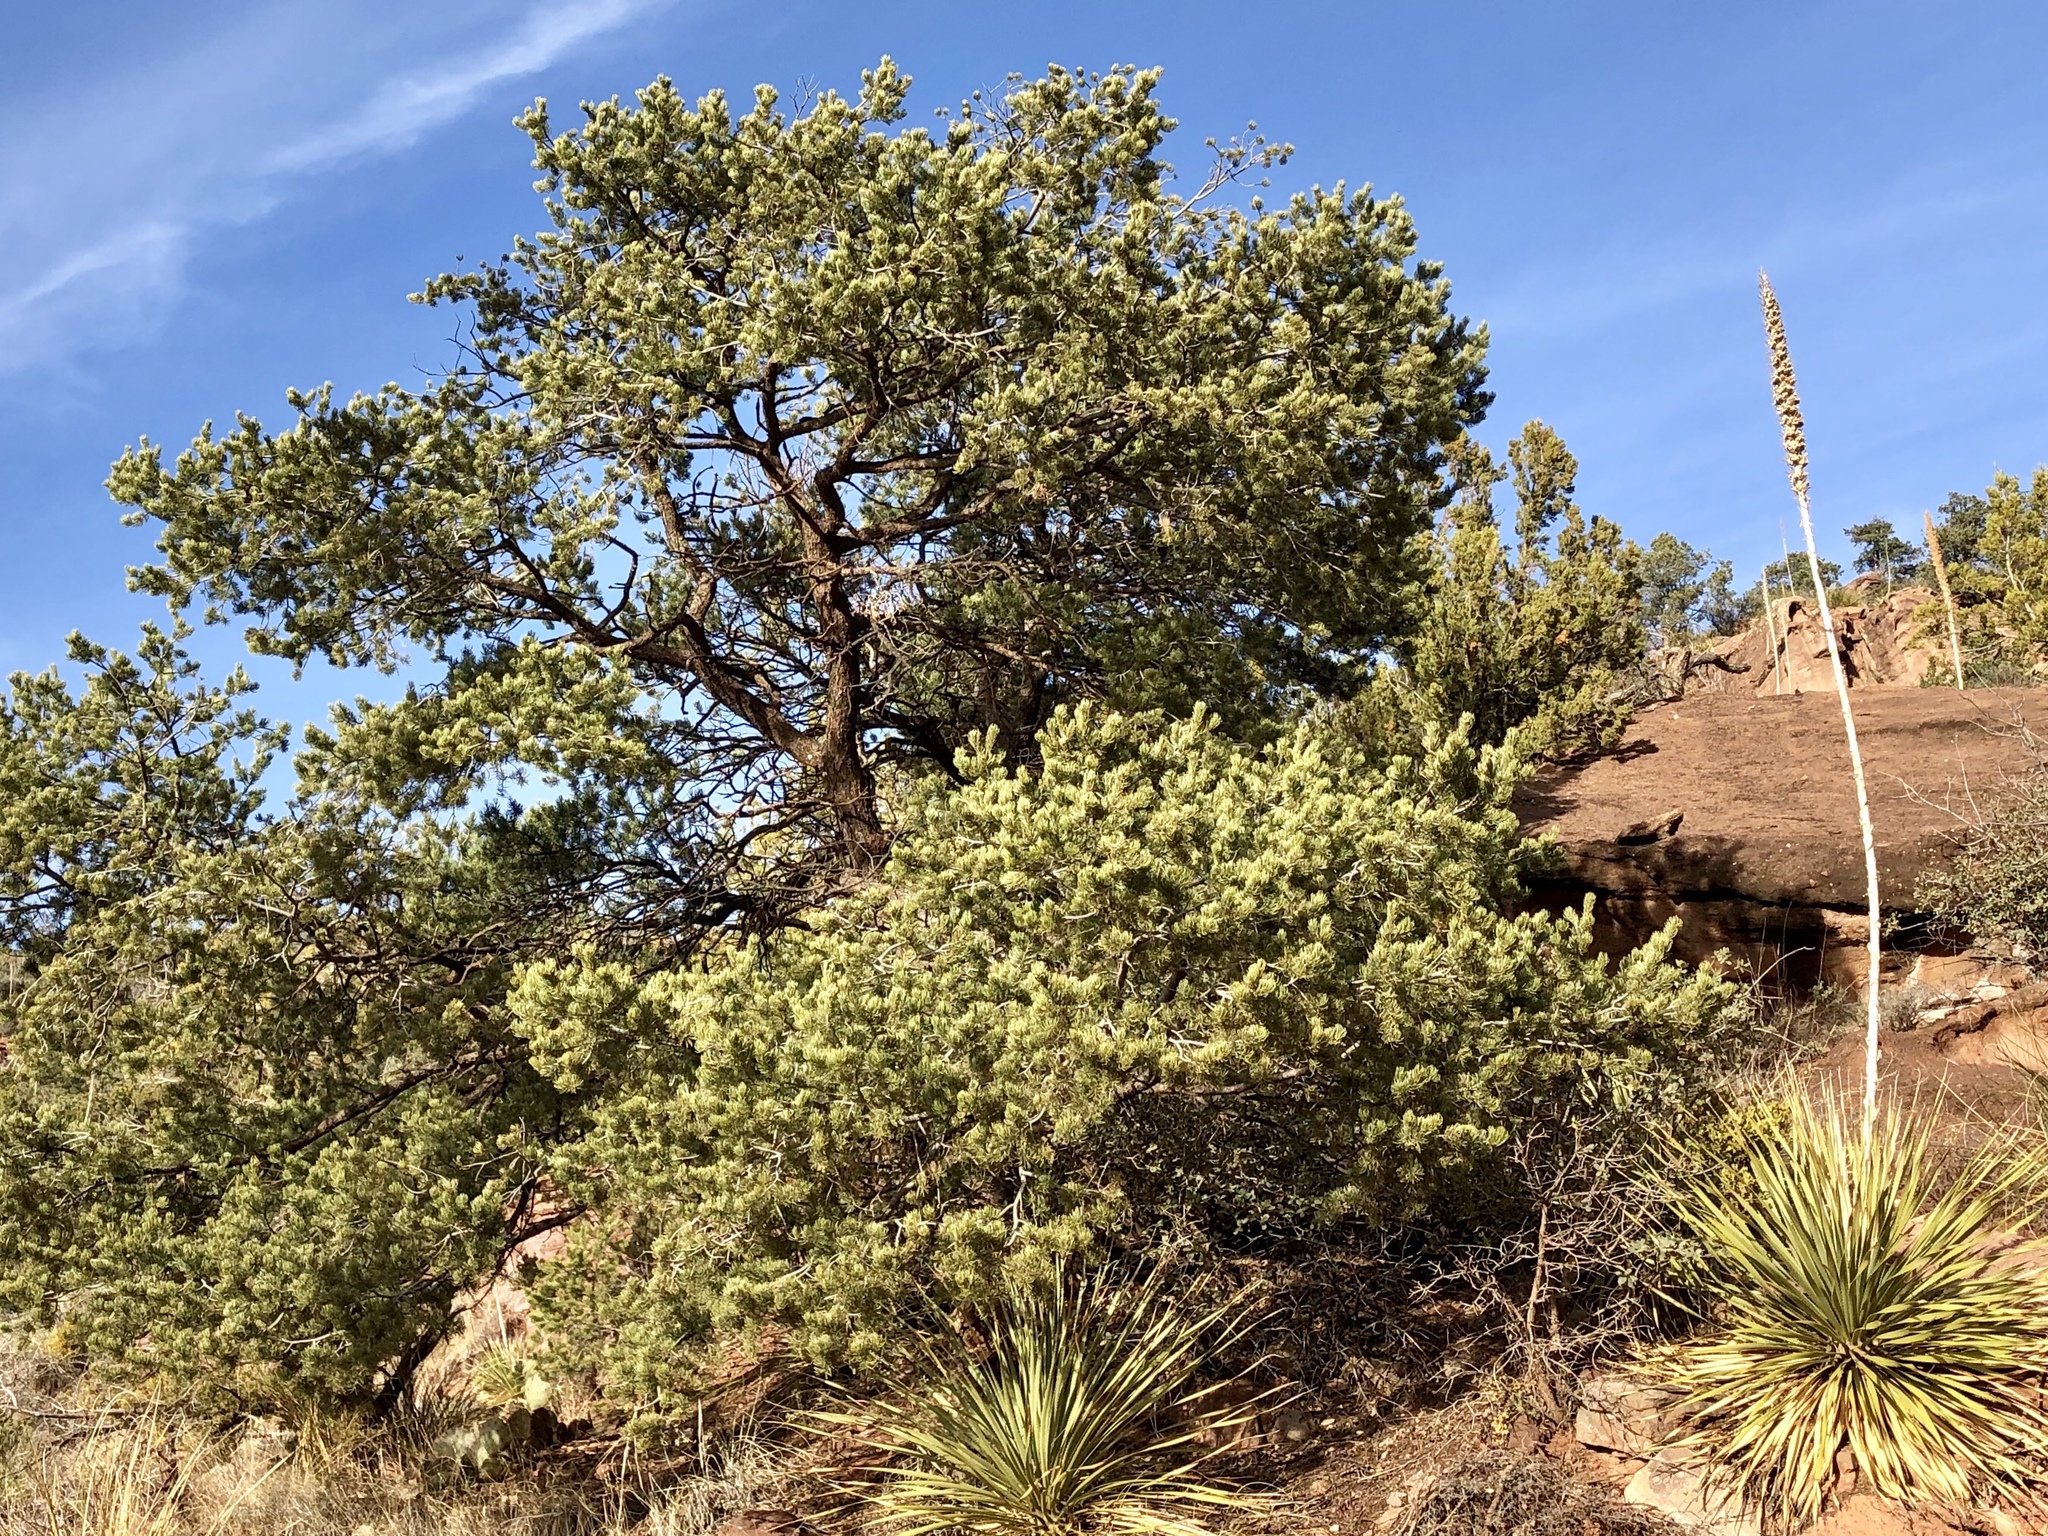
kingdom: Plantae
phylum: Tracheophyta
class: Pinopsida
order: Pinales
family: Pinaceae
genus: Pinus
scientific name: Pinus edulis
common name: Colorado pinyon
